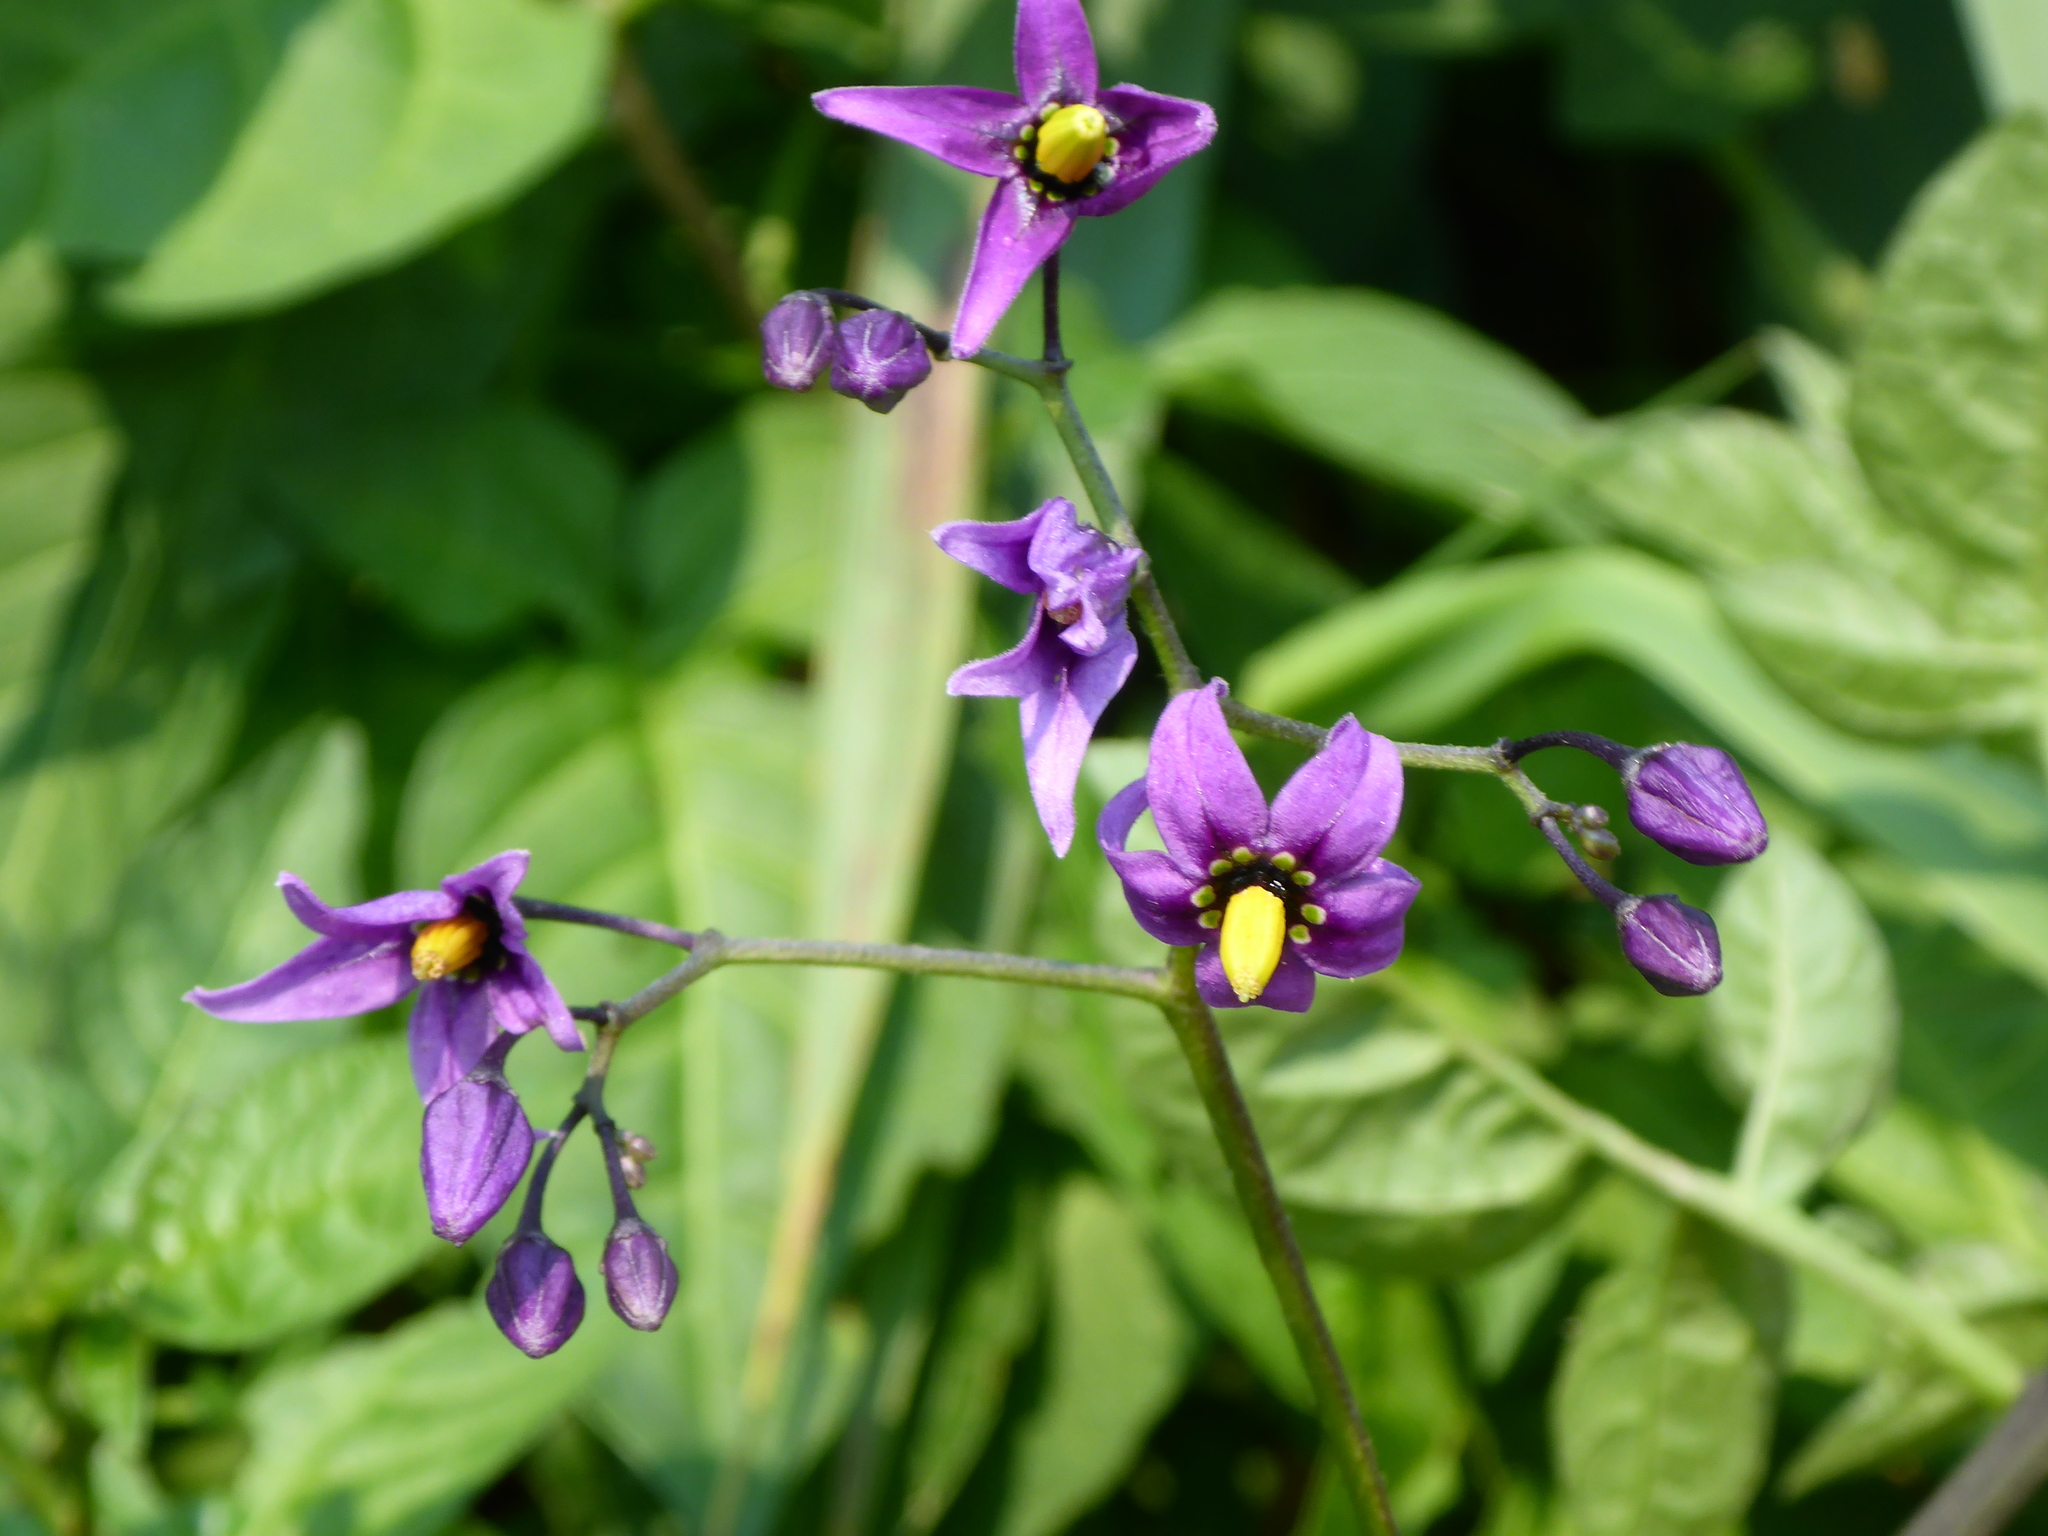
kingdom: Plantae
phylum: Tracheophyta
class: Magnoliopsida
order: Solanales
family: Solanaceae
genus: Solanum
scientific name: Solanum dulcamara
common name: Climbing nightshade
